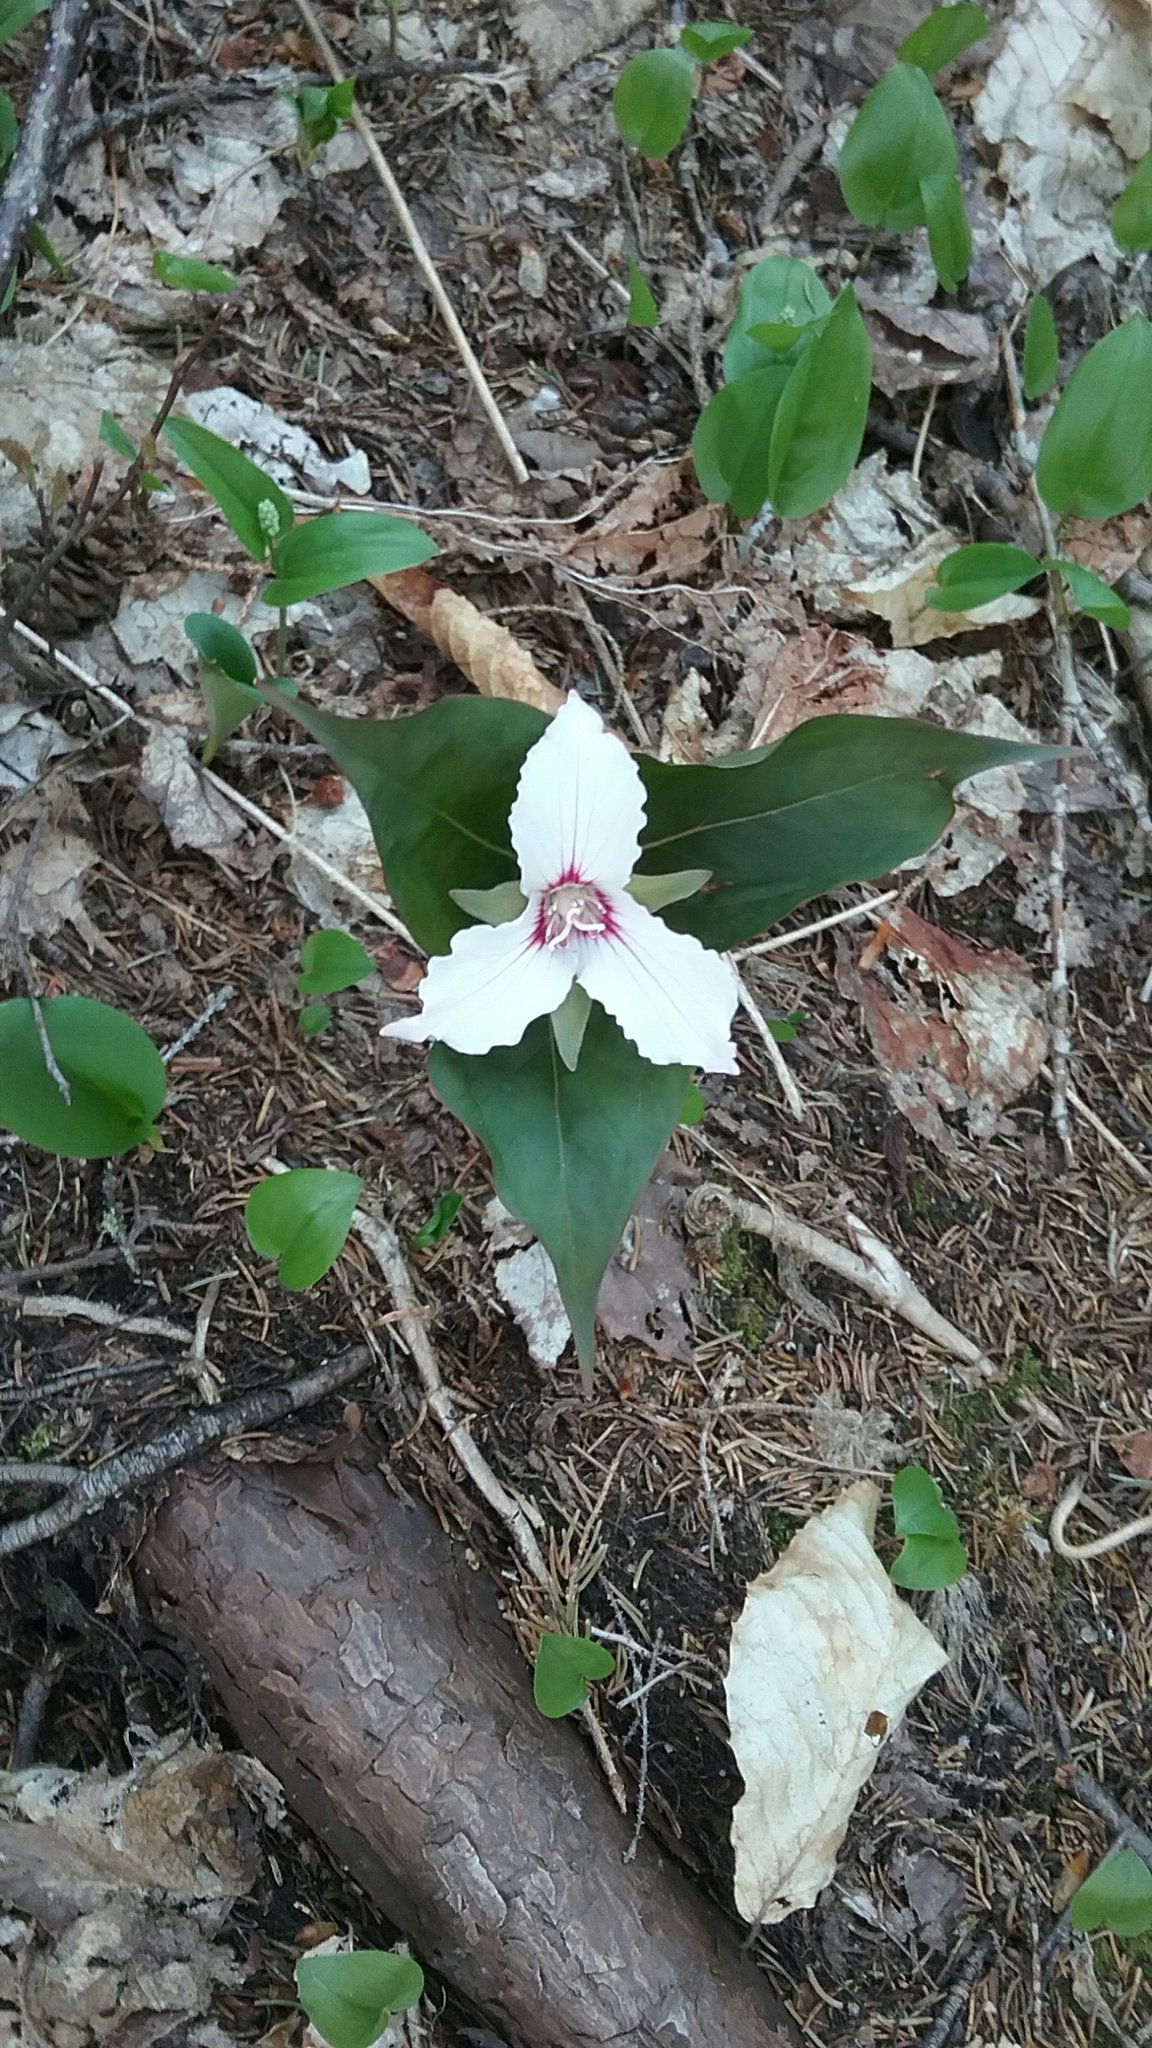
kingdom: Plantae
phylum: Tracheophyta
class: Liliopsida
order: Liliales
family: Melanthiaceae
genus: Trillium
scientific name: Trillium undulatum
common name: Paint trillium
